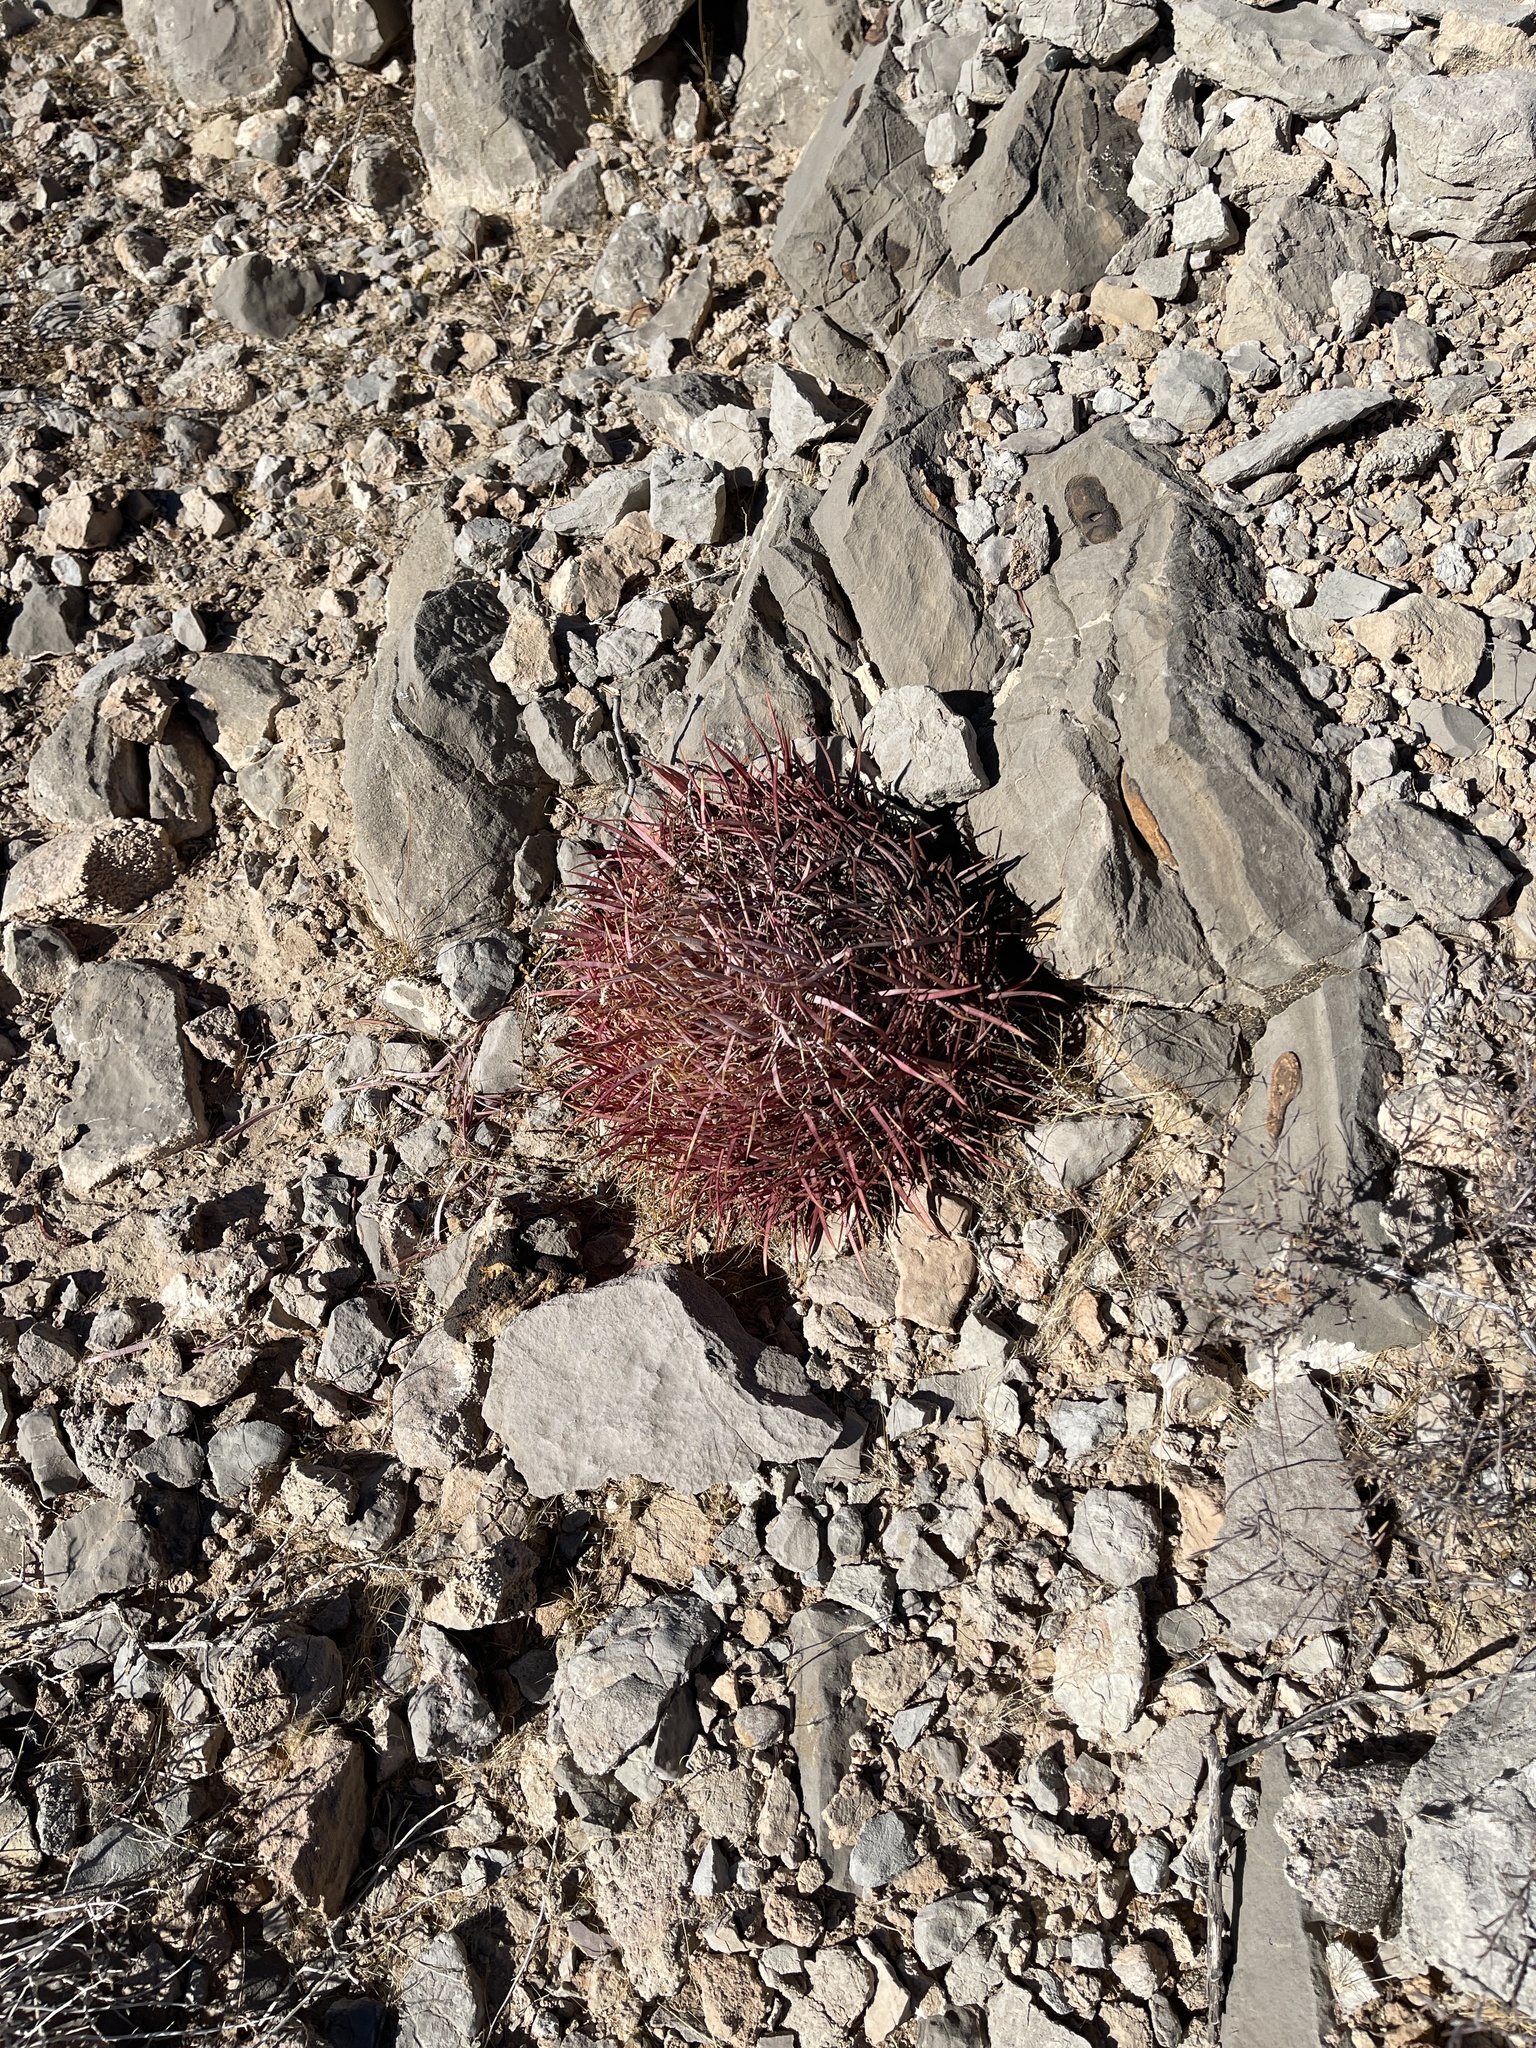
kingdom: Plantae
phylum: Tracheophyta
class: Magnoliopsida
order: Caryophyllales
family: Cactaceae
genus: Ferocactus
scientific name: Ferocactus cylindraceus
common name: California barrel cactus
